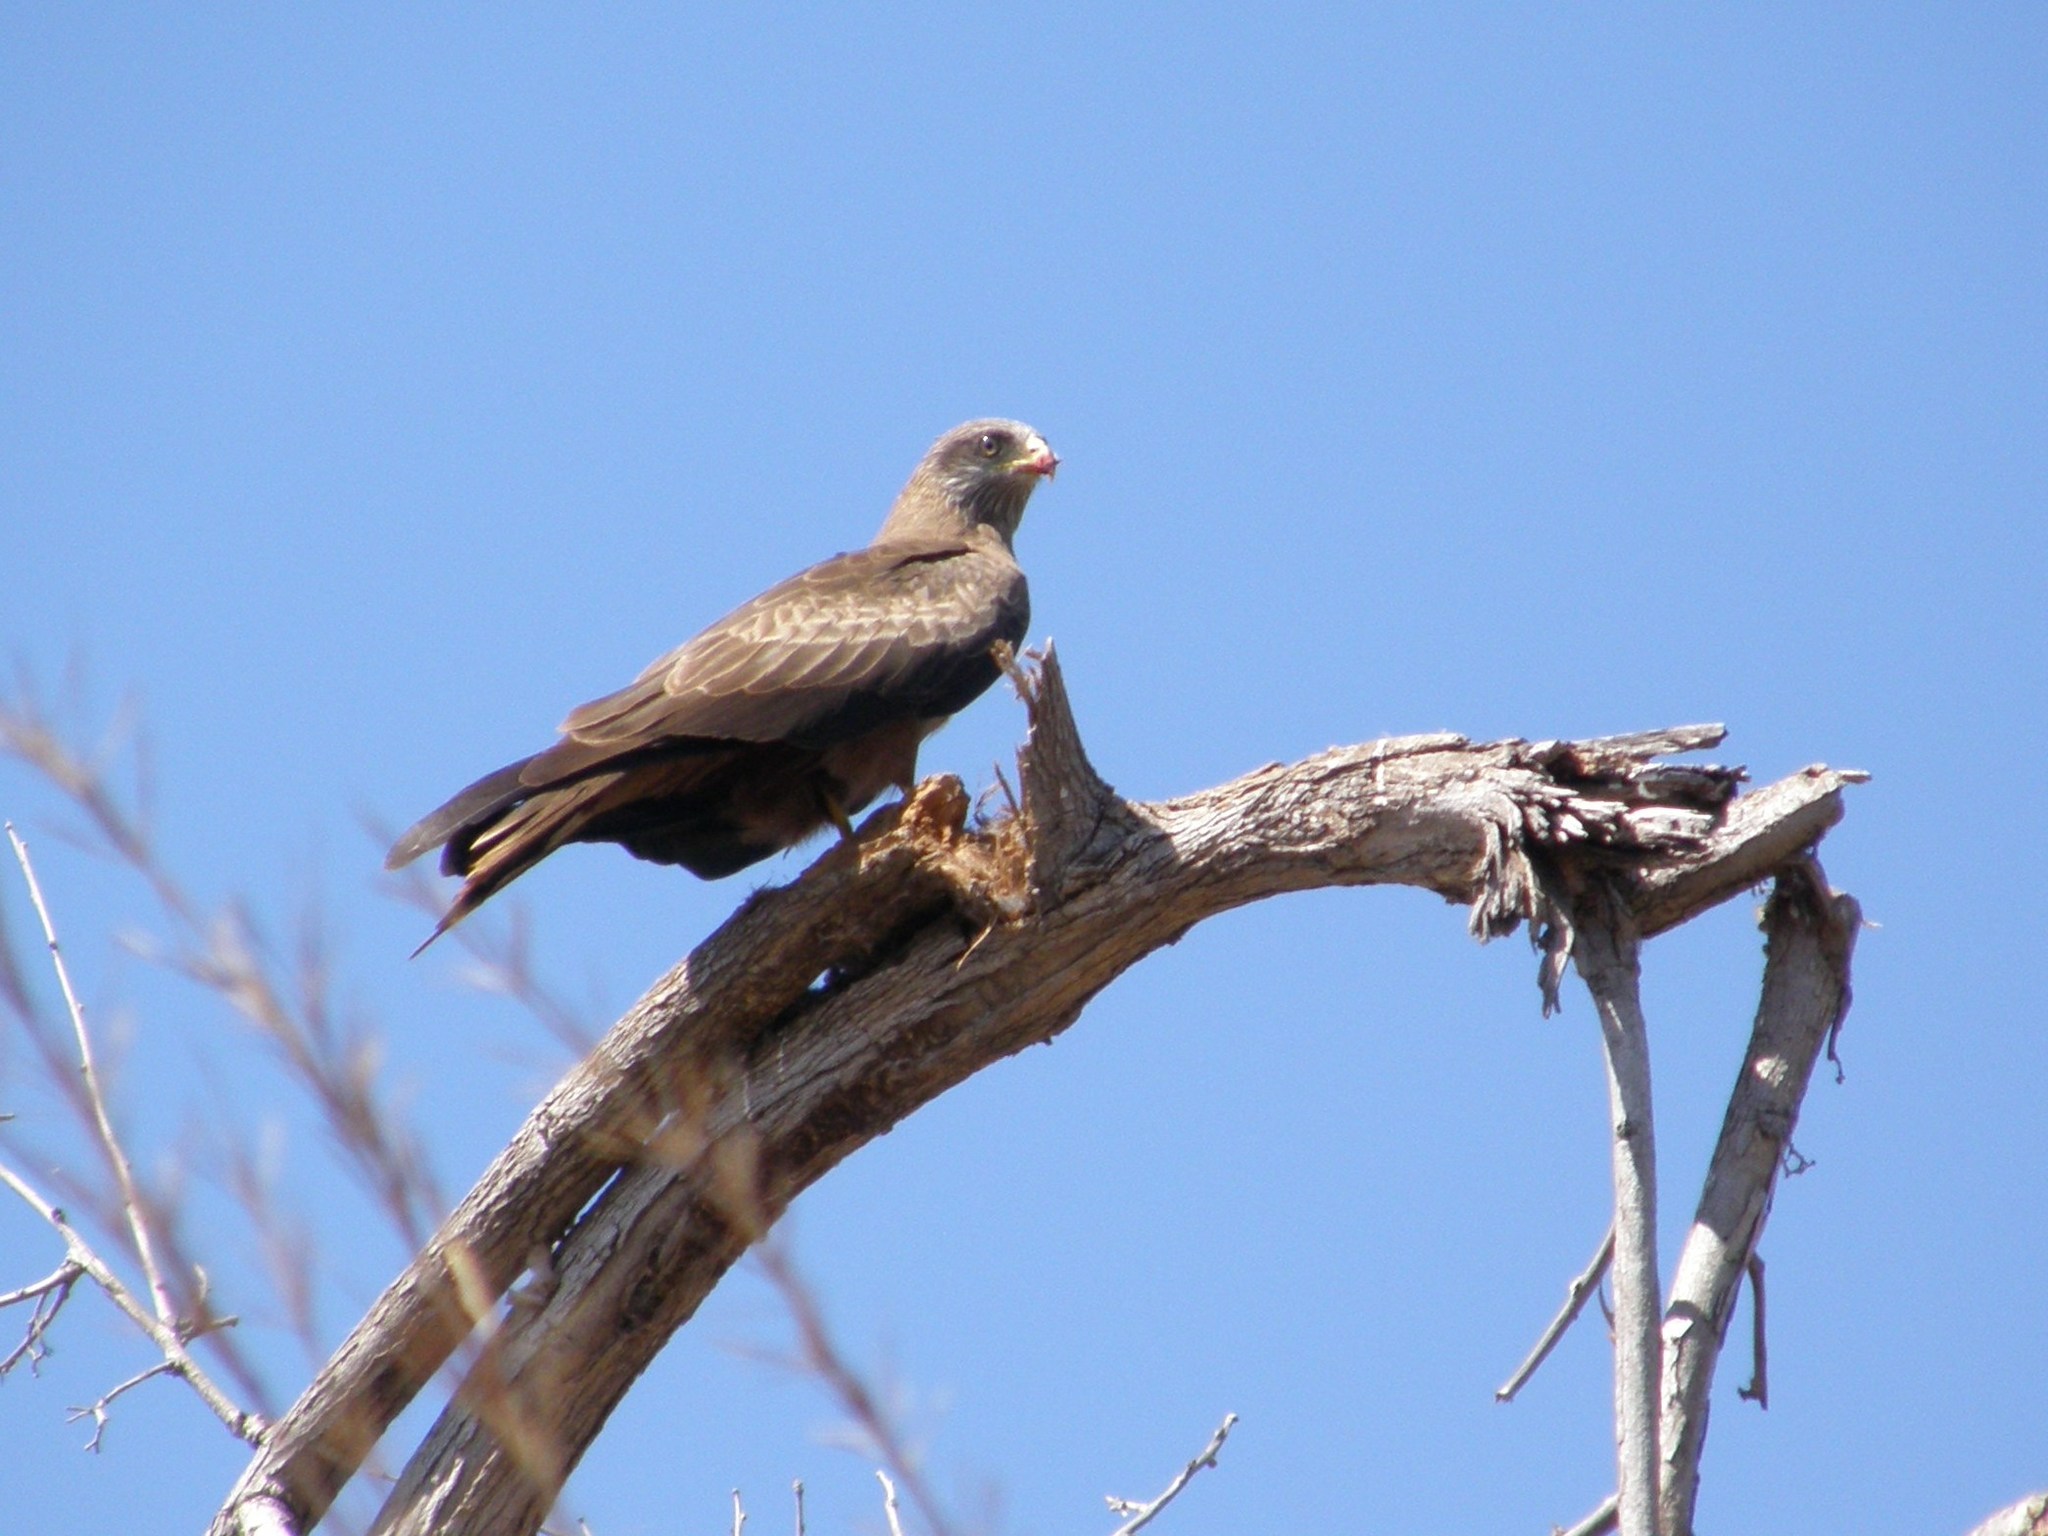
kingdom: Animalia
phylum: Chordata
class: Aves
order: Accipitriformes
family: Accipitridae
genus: Milvus
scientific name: Milvus migrans
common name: Black kite
